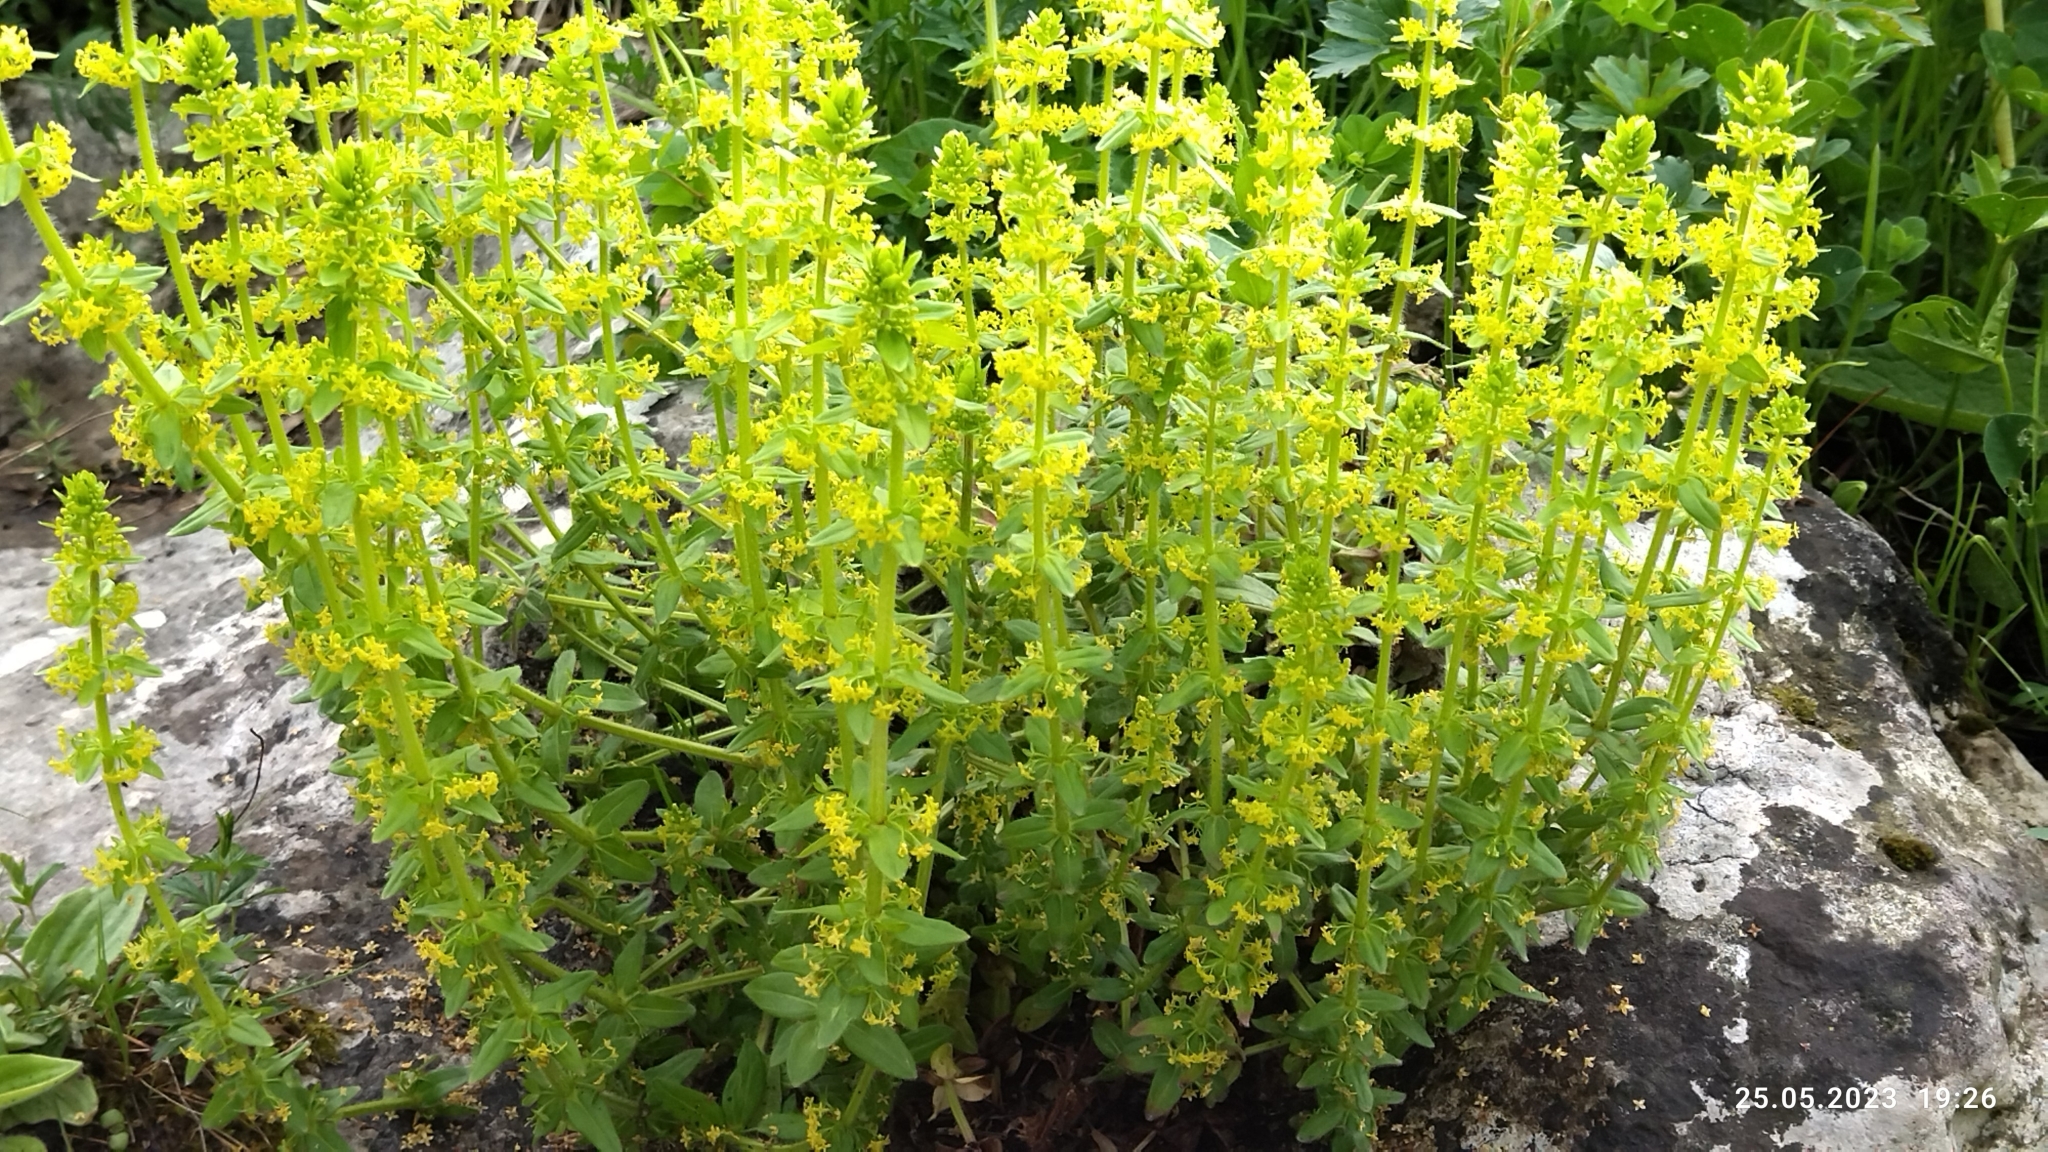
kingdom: Plantae
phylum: Tracheophyta
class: Magnoliopsida
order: Gentianales
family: Rubiaceae
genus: Cruciata
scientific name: Cruciata laevipes
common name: Crosswort
